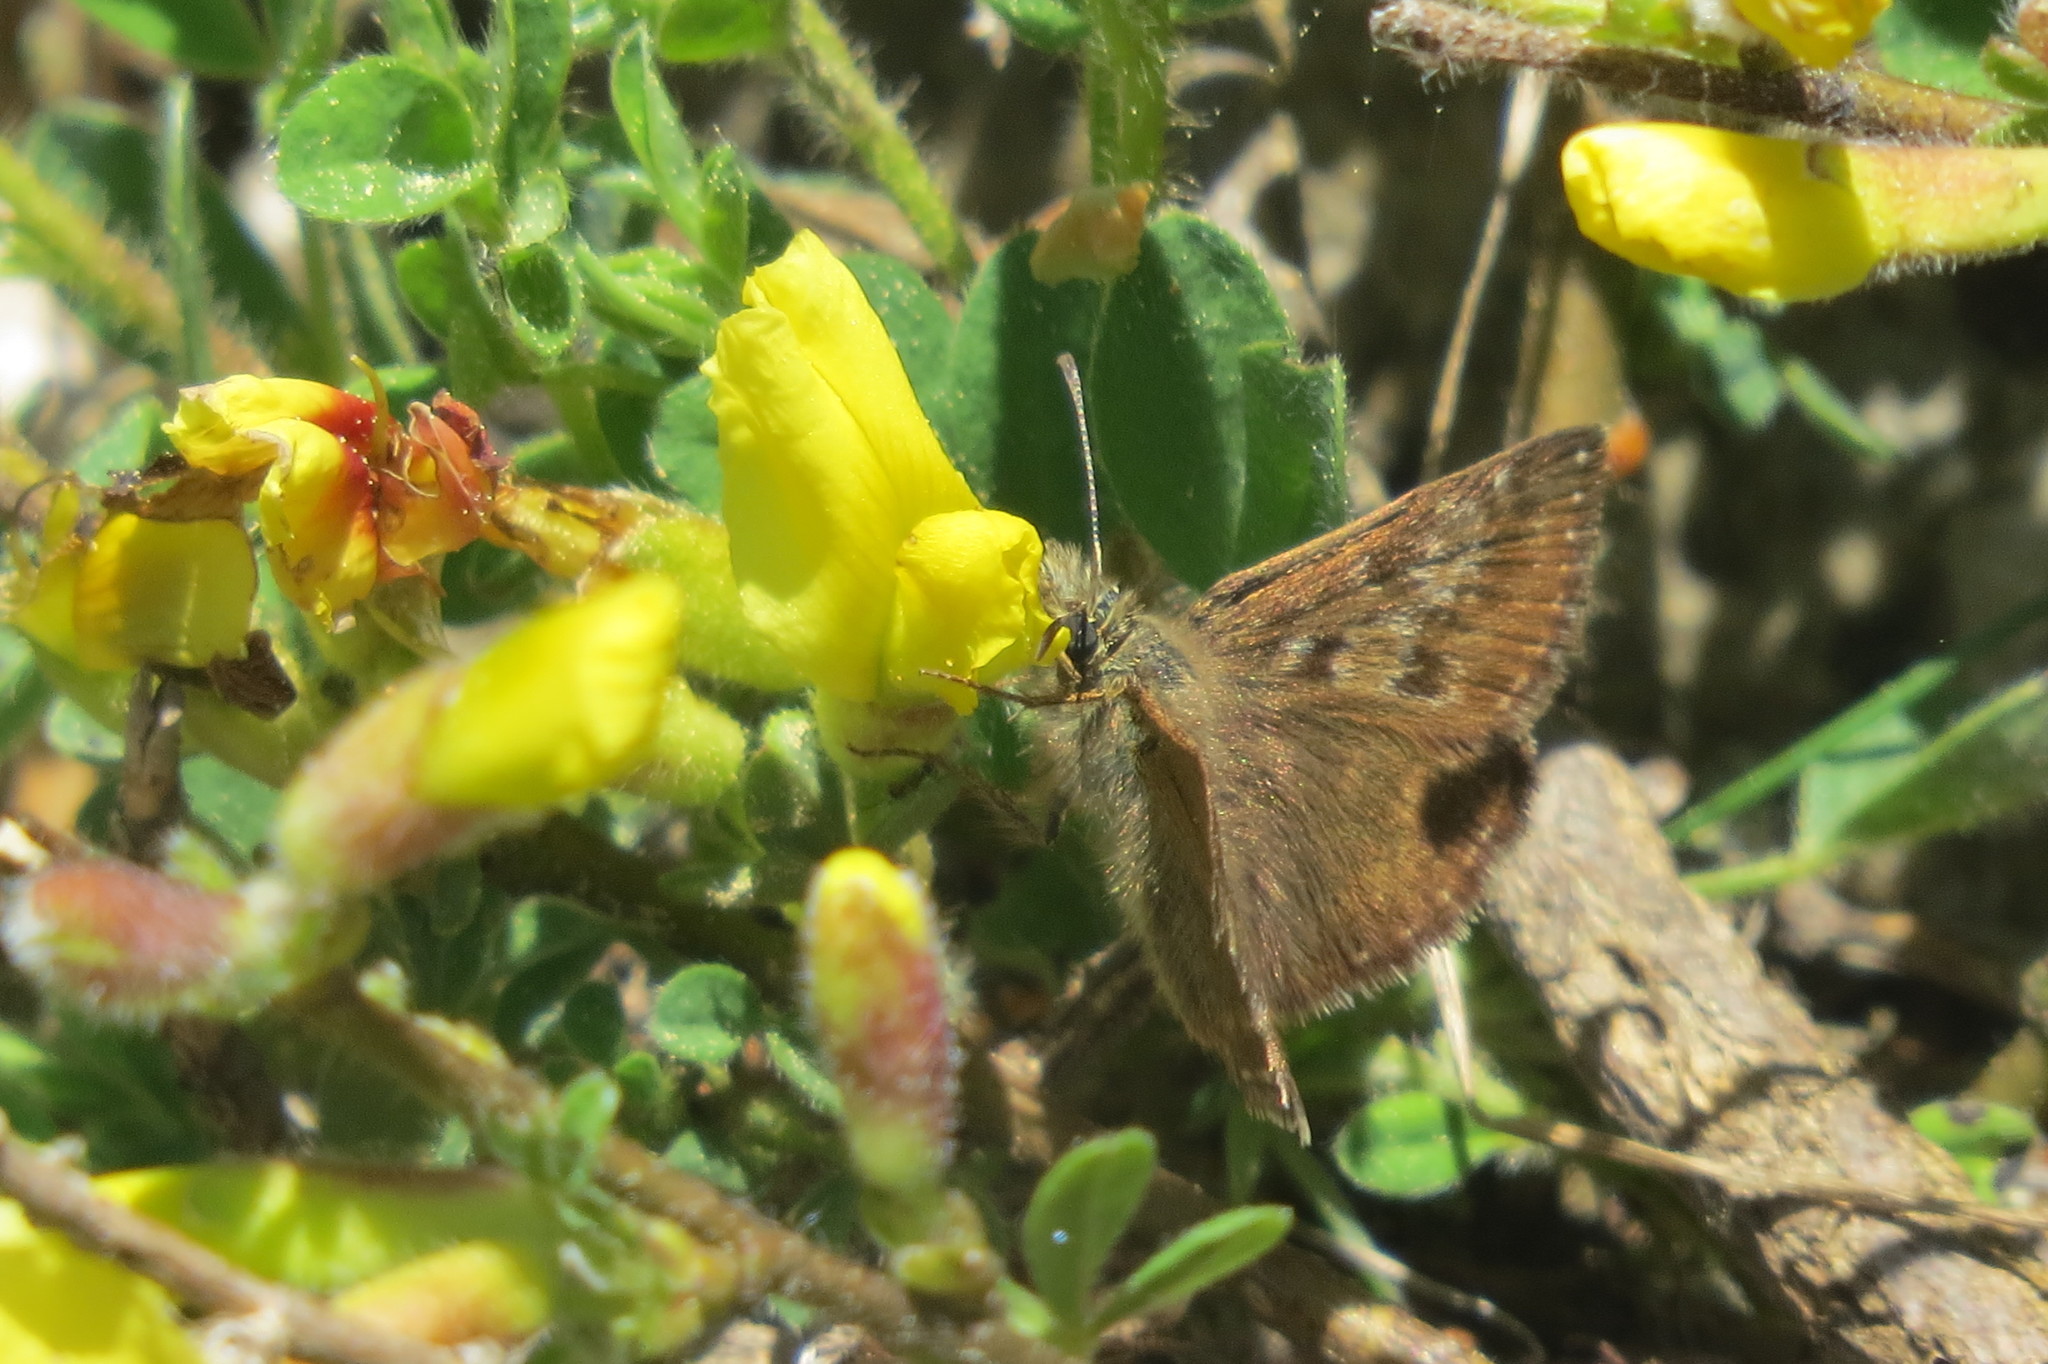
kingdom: Animalia
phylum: Arthropoda
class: Insecta
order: Lepidoptera
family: Hesperiidae
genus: Erynnis
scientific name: Erynnis tages
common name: Dingy skipper
